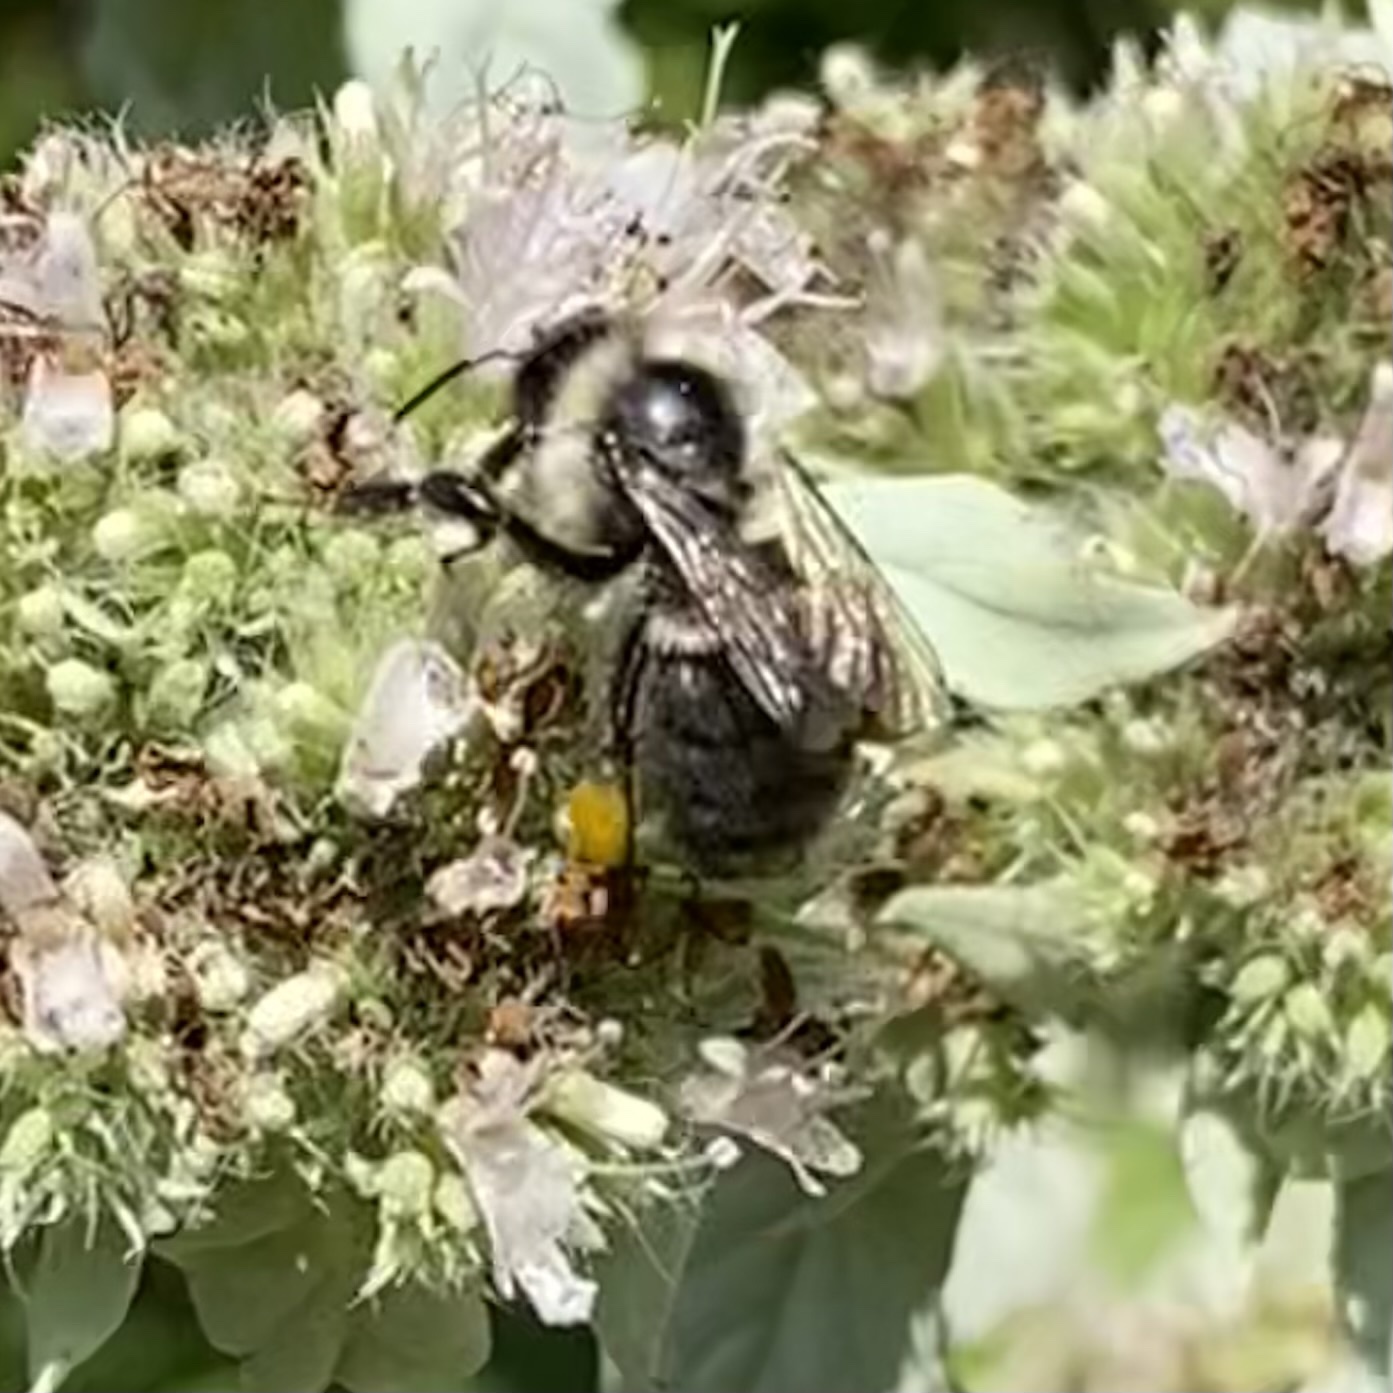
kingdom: Animalia
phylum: Arthropoda
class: Insecta
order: Hymenoptera
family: Apidae
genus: Bombus
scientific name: Bombus impatiens
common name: Common eastern bumble bee
